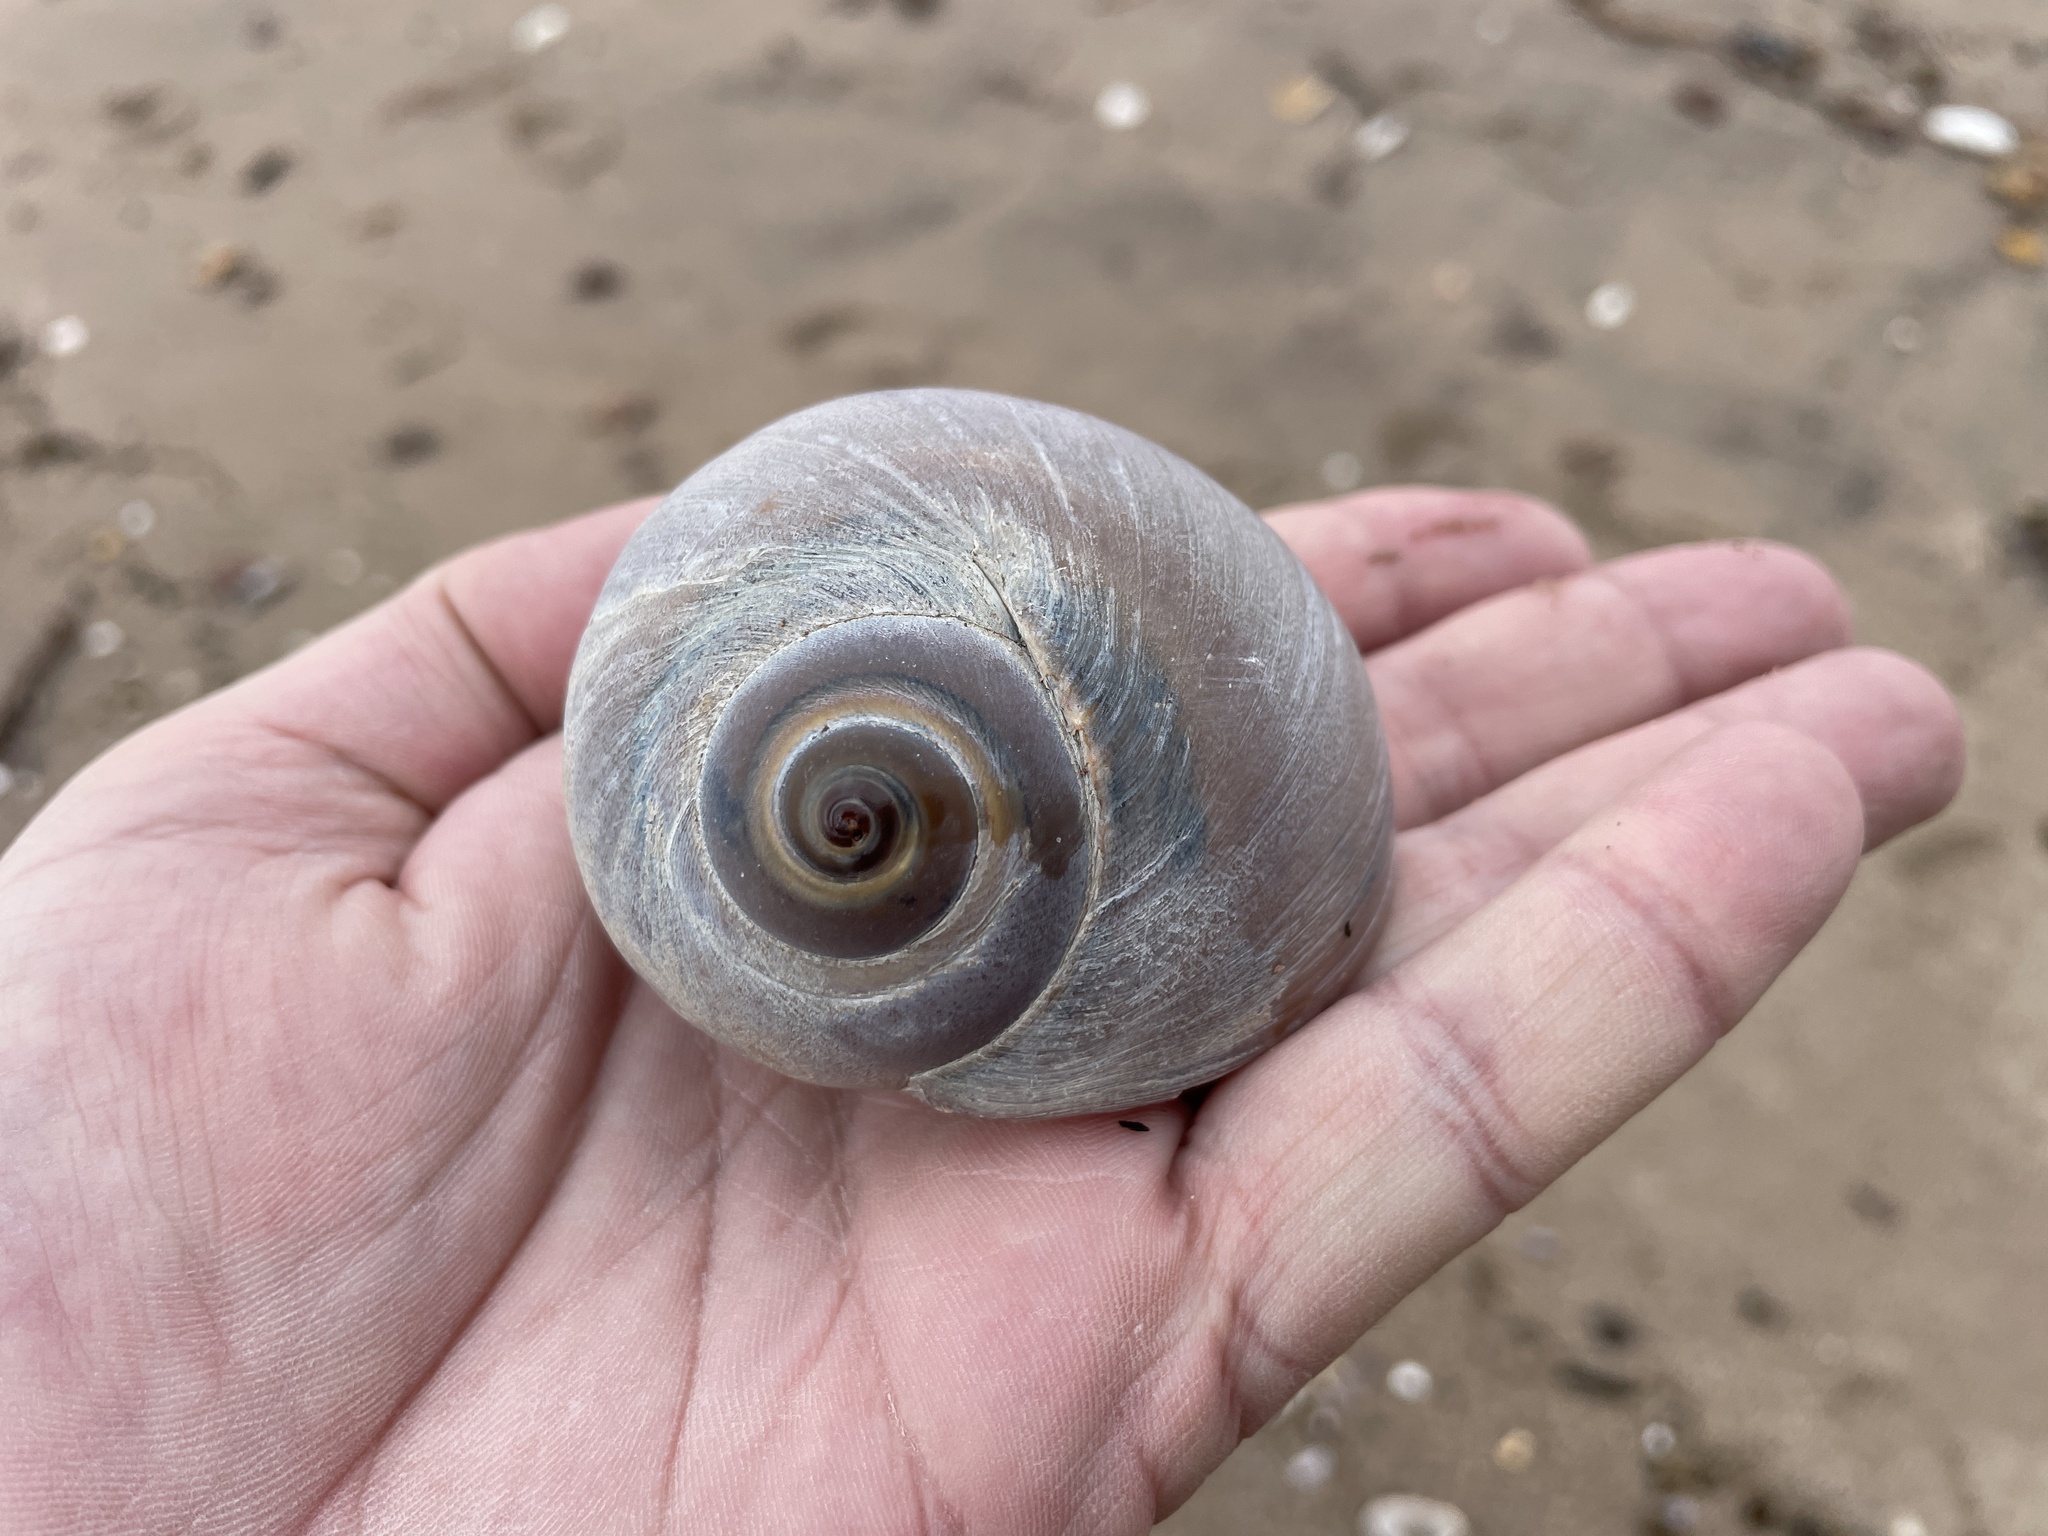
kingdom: Animalia
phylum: Mollusca
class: Gastropoda
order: Littorinimorpha
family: Naticidae
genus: Neverita
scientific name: Neverita duplicata
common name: Lobed moonsnail
